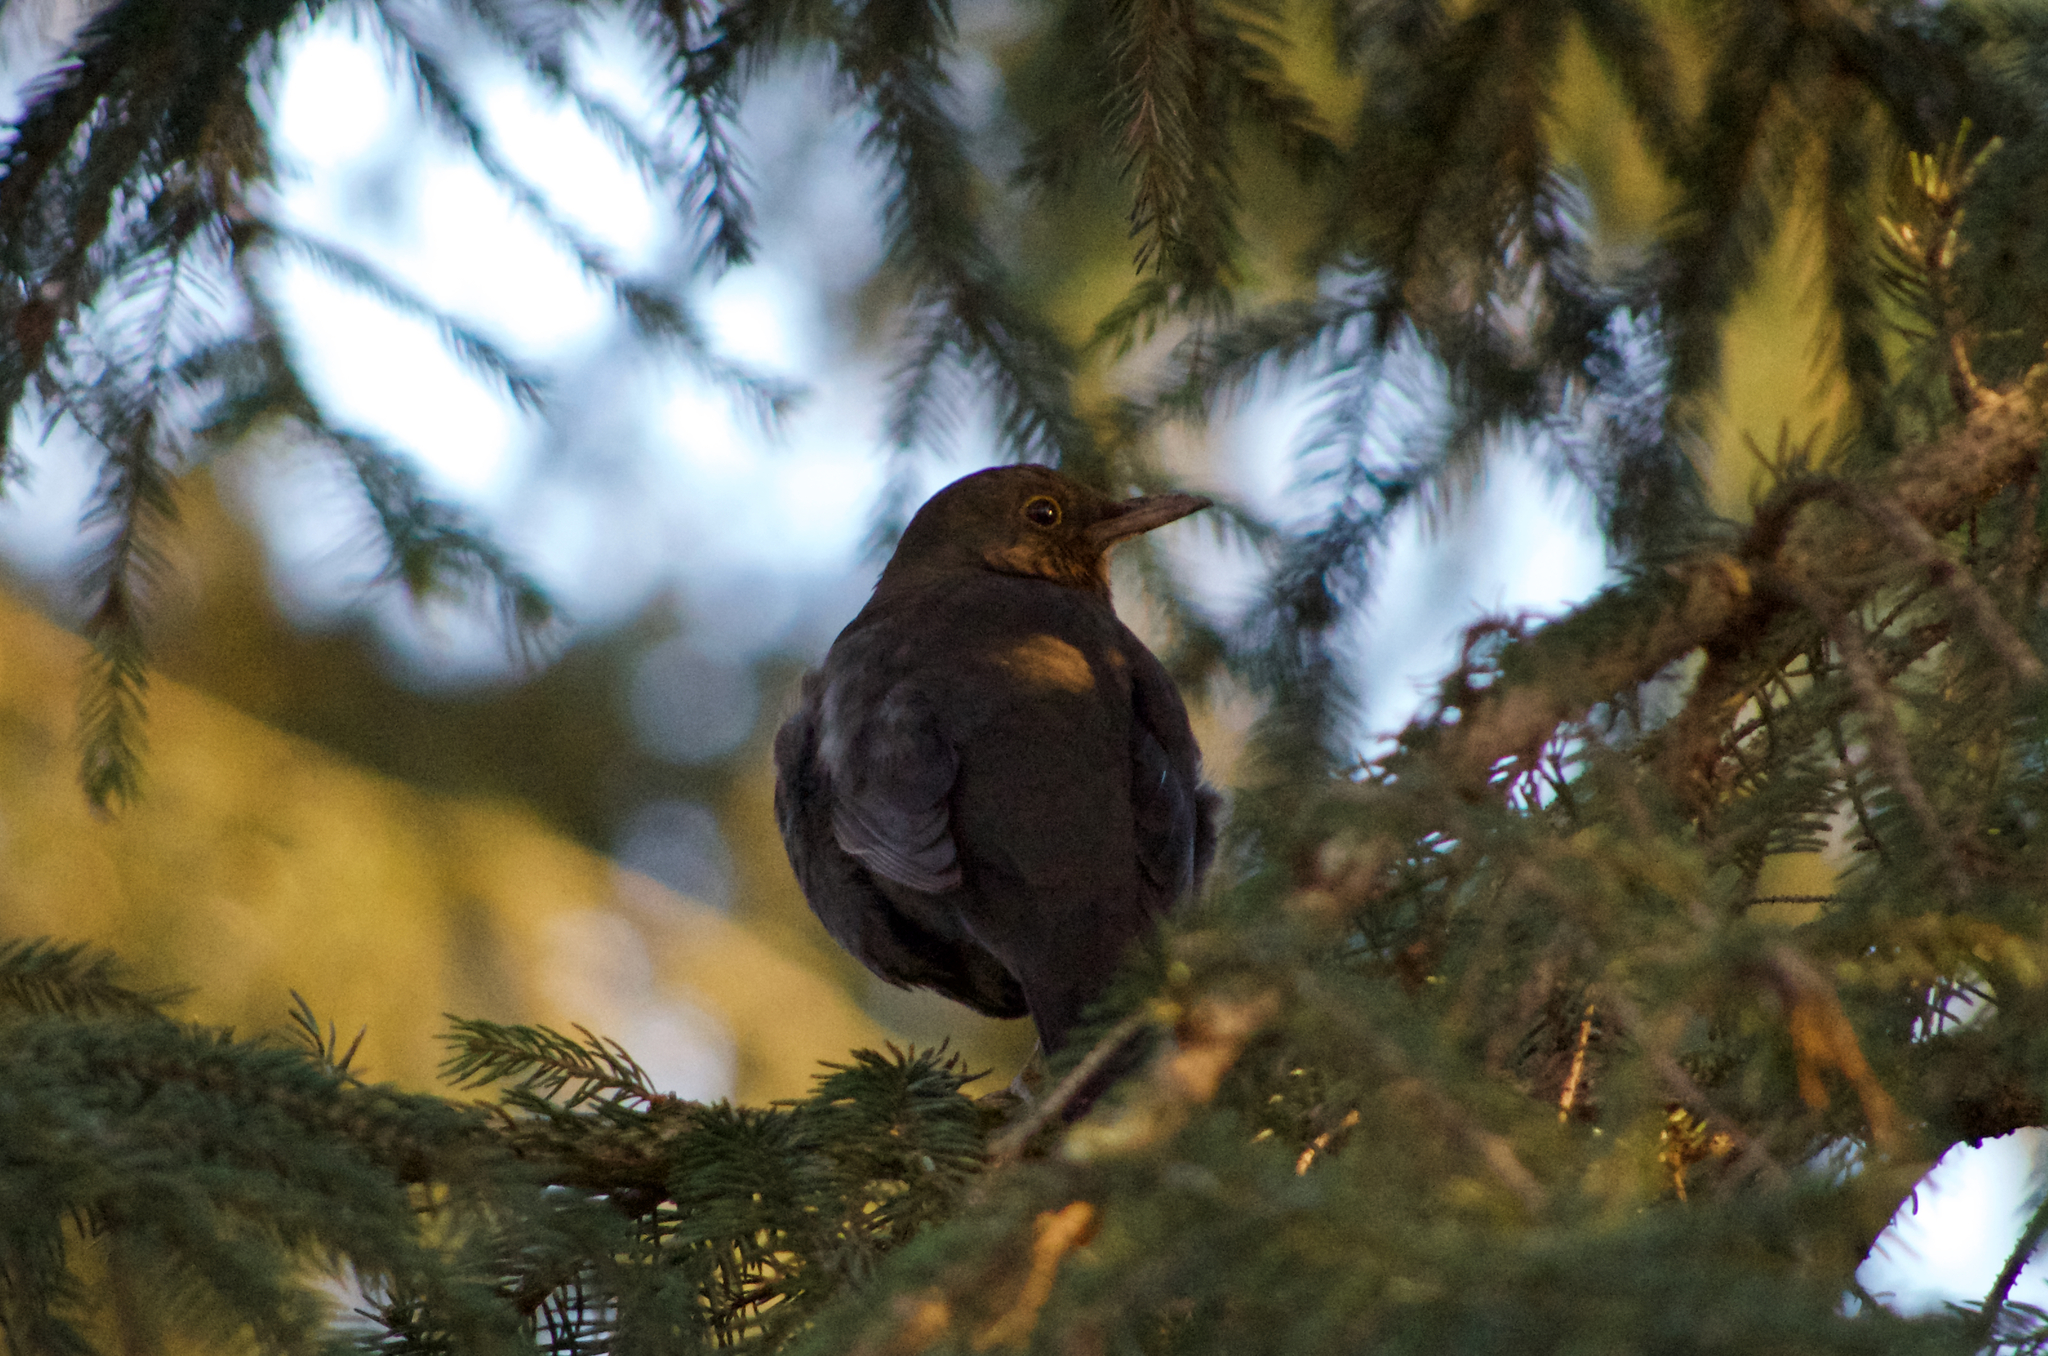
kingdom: Animalia
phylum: Chordata
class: Aves
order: Passeriformes
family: Turdidae
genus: Turdus
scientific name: Turdus merula
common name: Common blackbird
